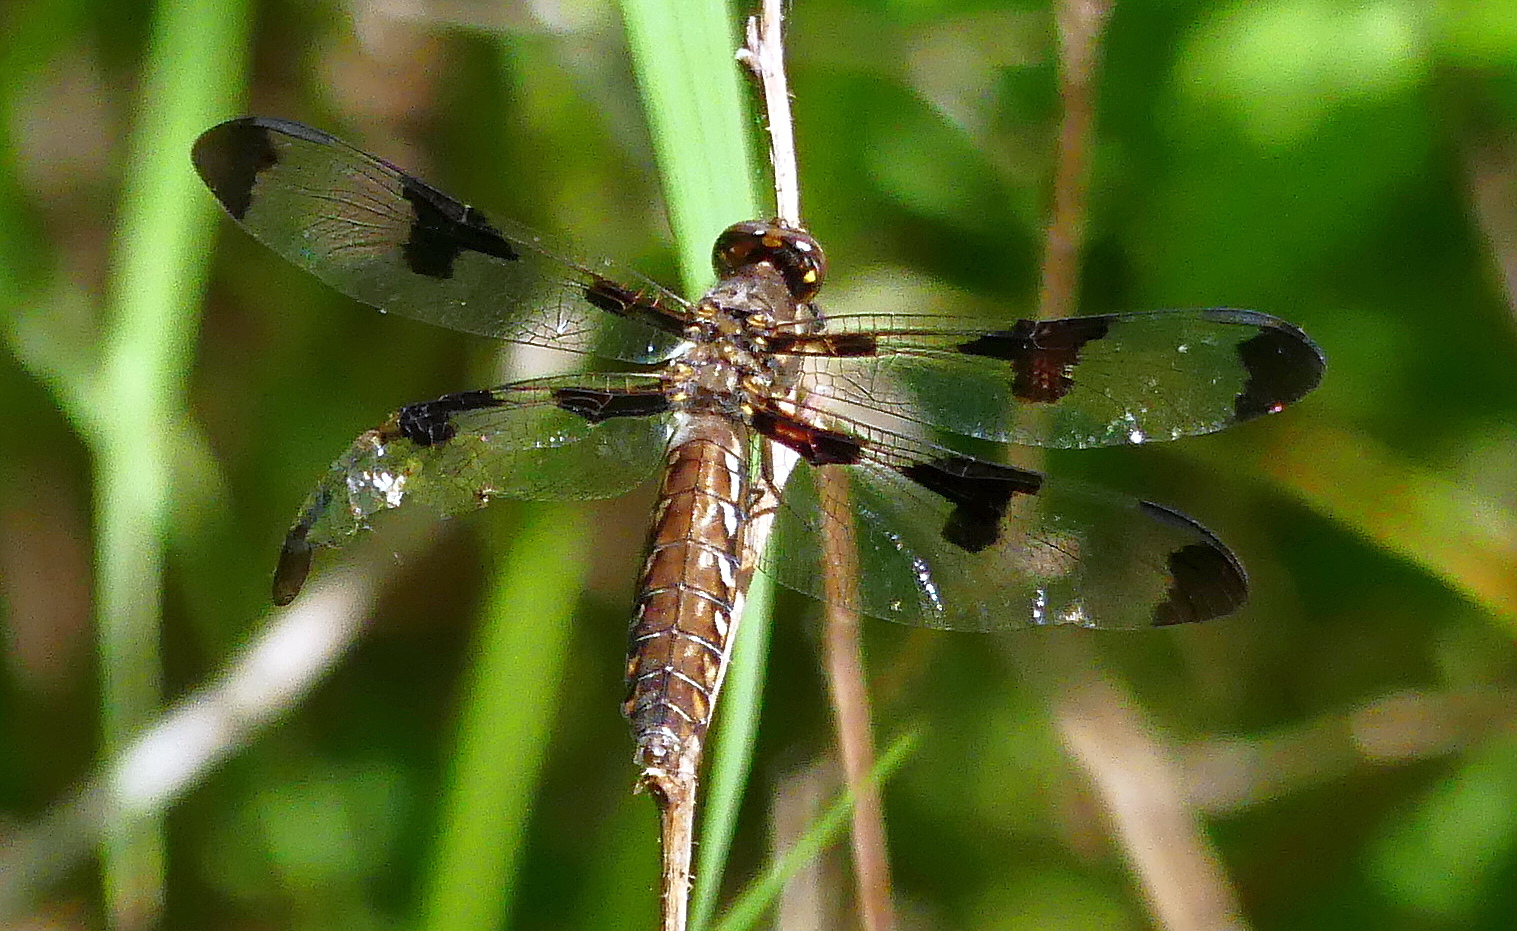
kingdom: Animalia
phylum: Arthropoda
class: Insecta
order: Odonata
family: Libellulidae
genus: Plathemis
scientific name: Plathemis lydia
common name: Common whitetail
